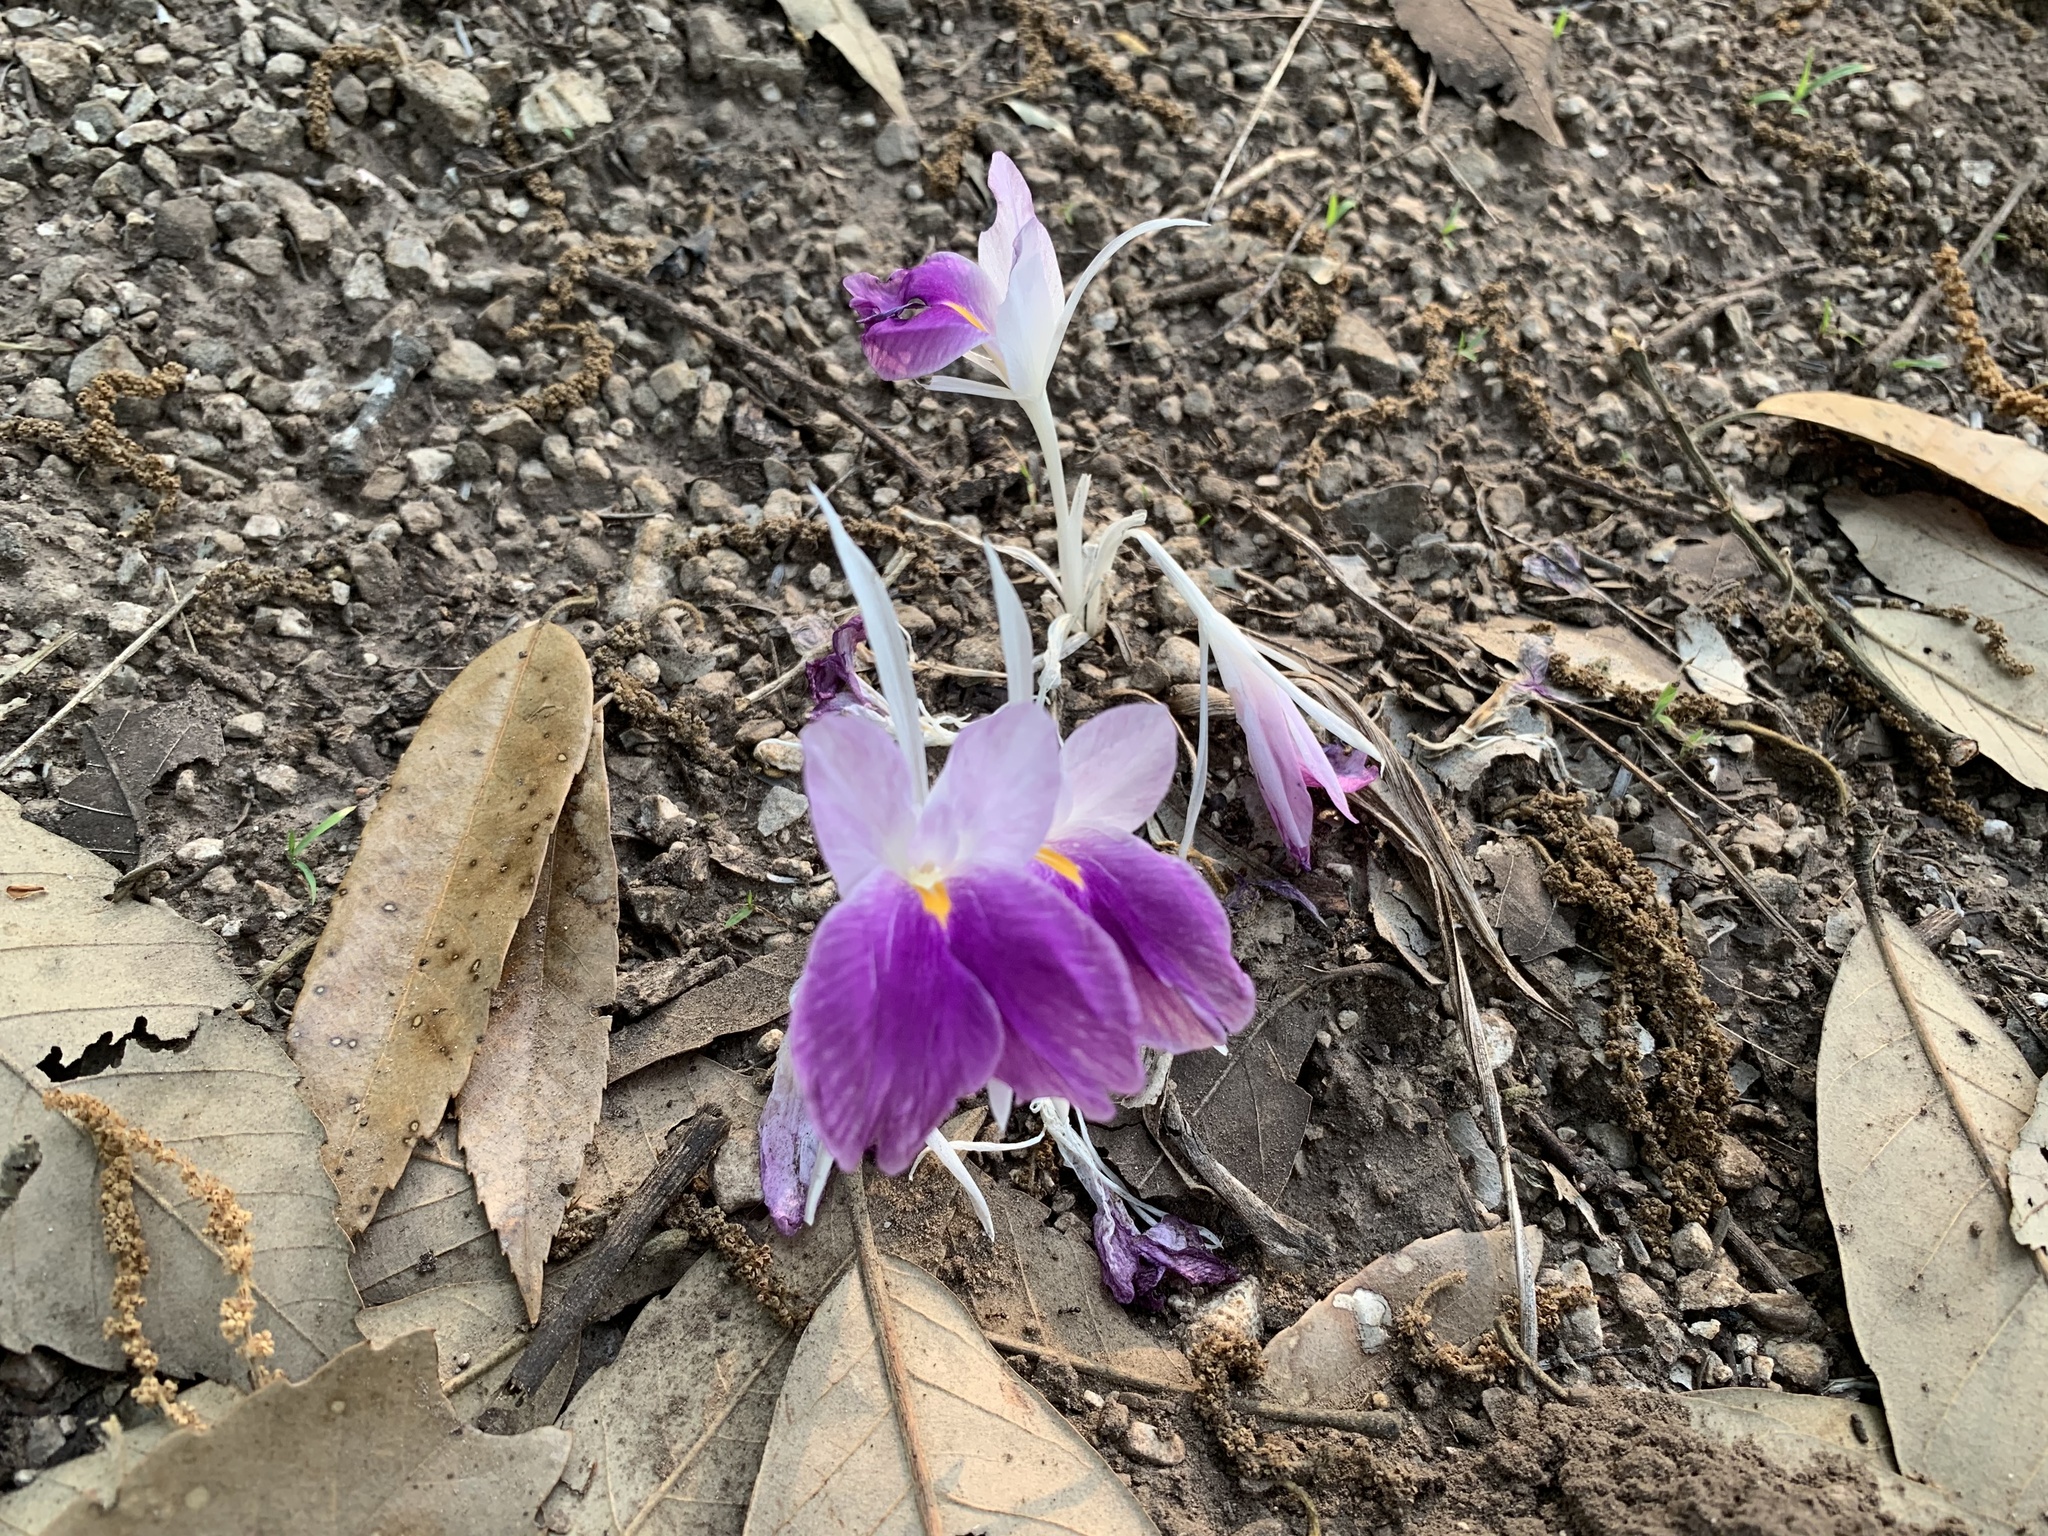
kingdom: Plantae
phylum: Tracheophyta
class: Liliopsida
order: Zingiberales
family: Zingiberaceae
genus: Kaempferia
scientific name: Kaempferia simaoensis
